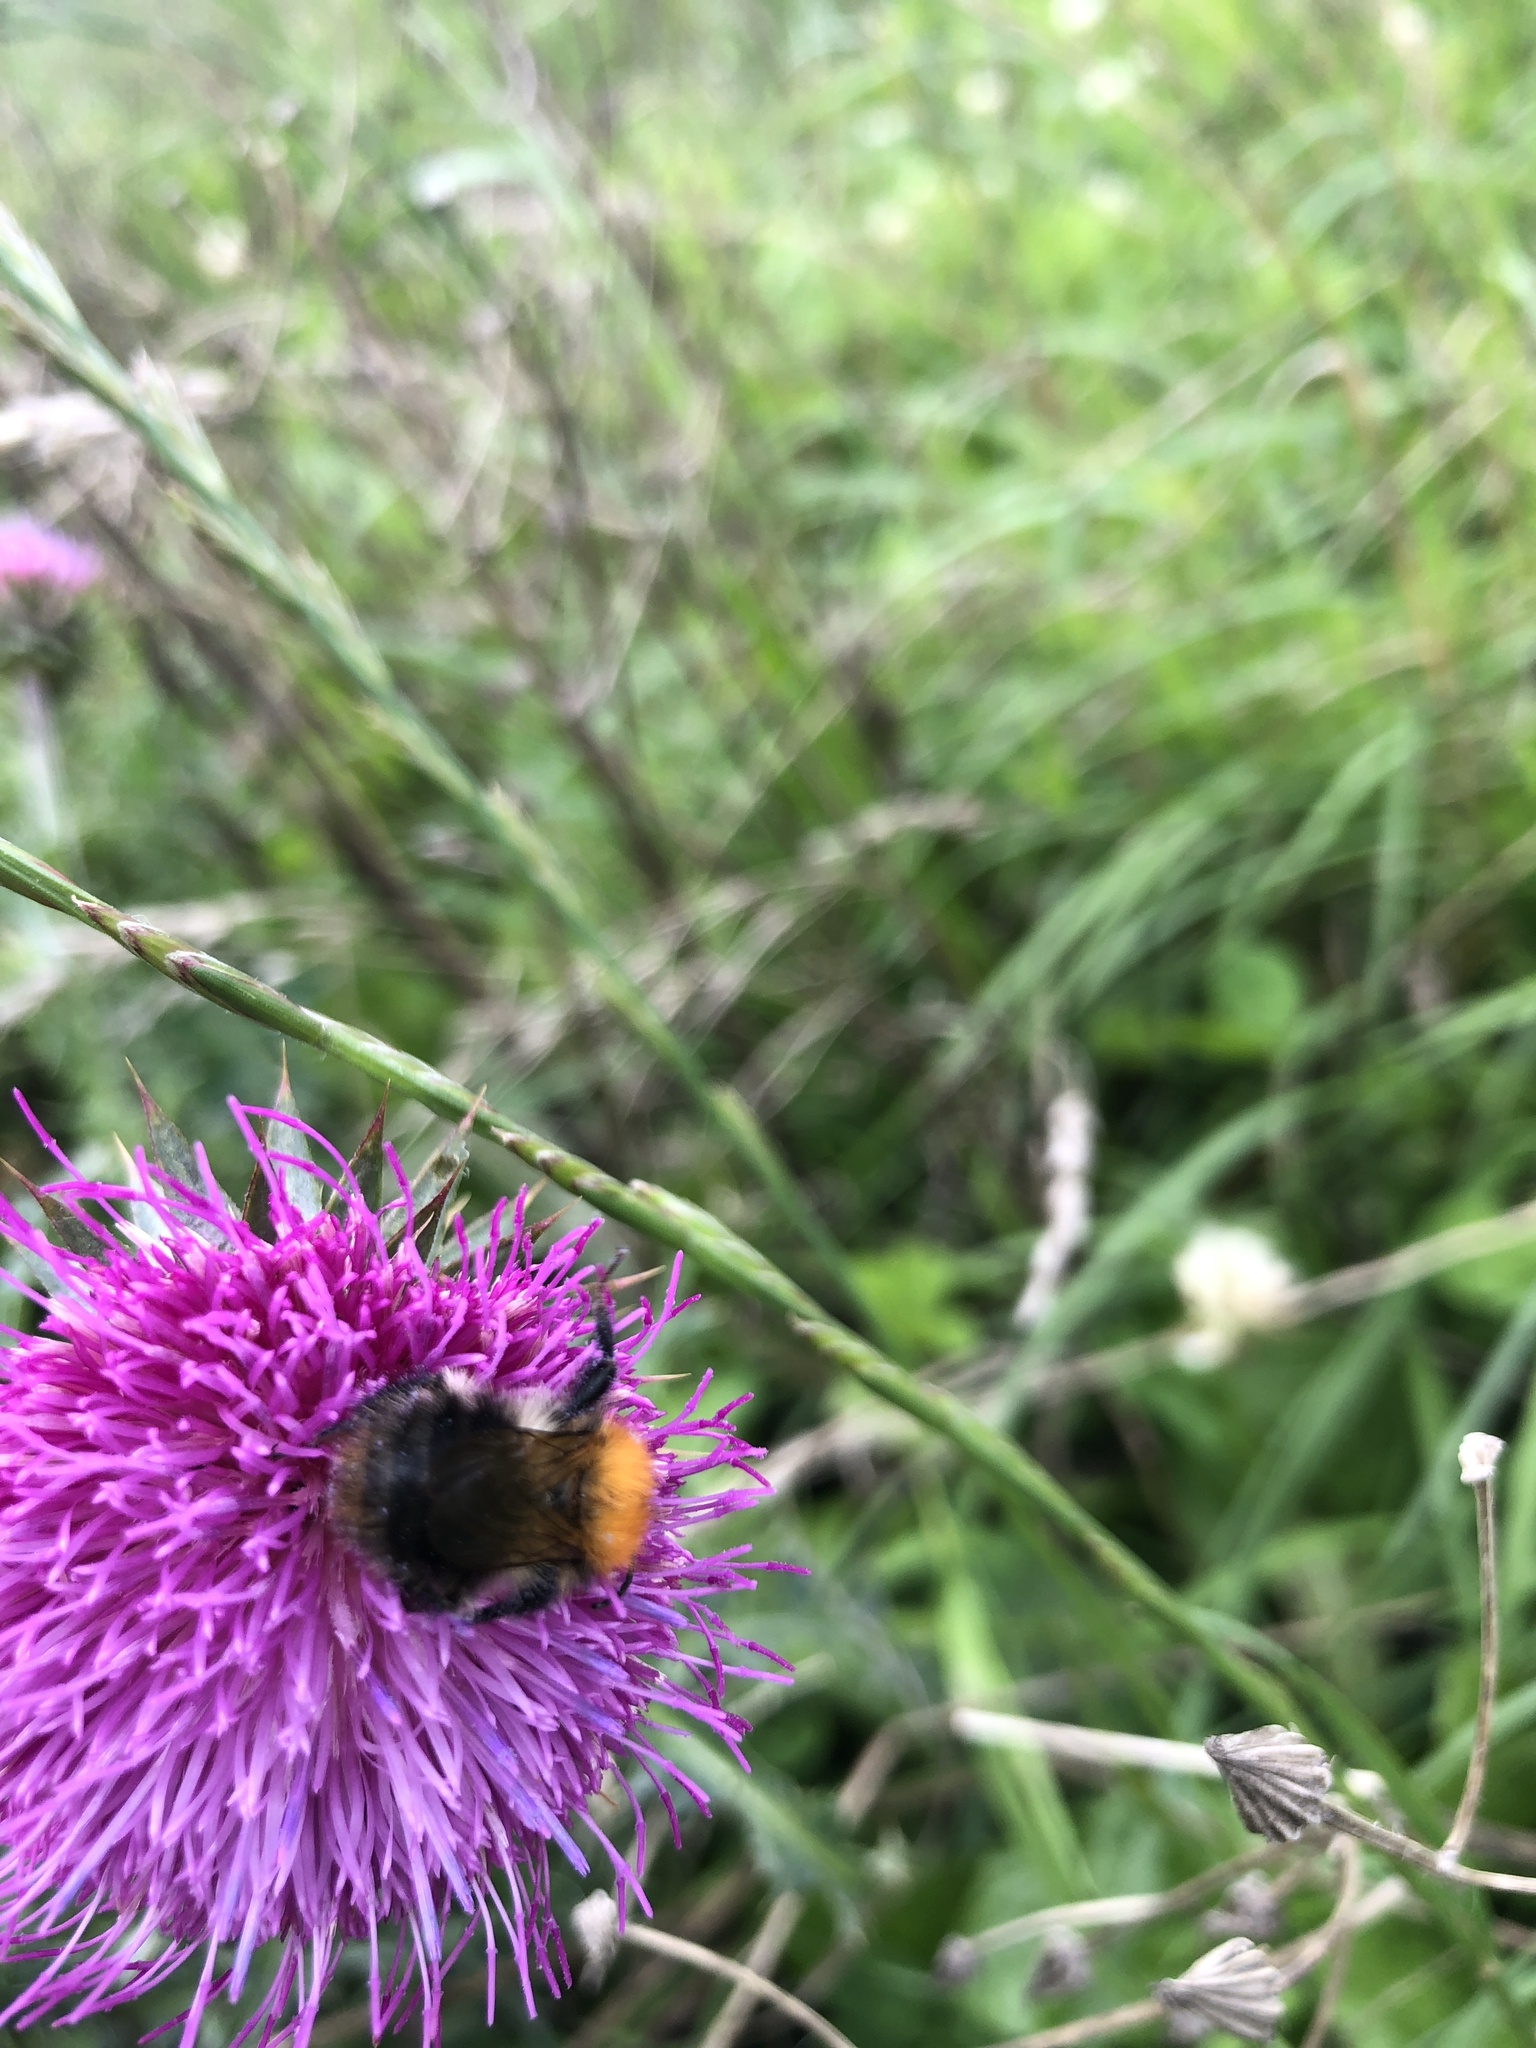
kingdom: Animalia
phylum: Arthropoda
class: Insecta
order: Hymenoptera
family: Apidae
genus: Bombus
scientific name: Bombus pascuorum
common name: Common carder bee
